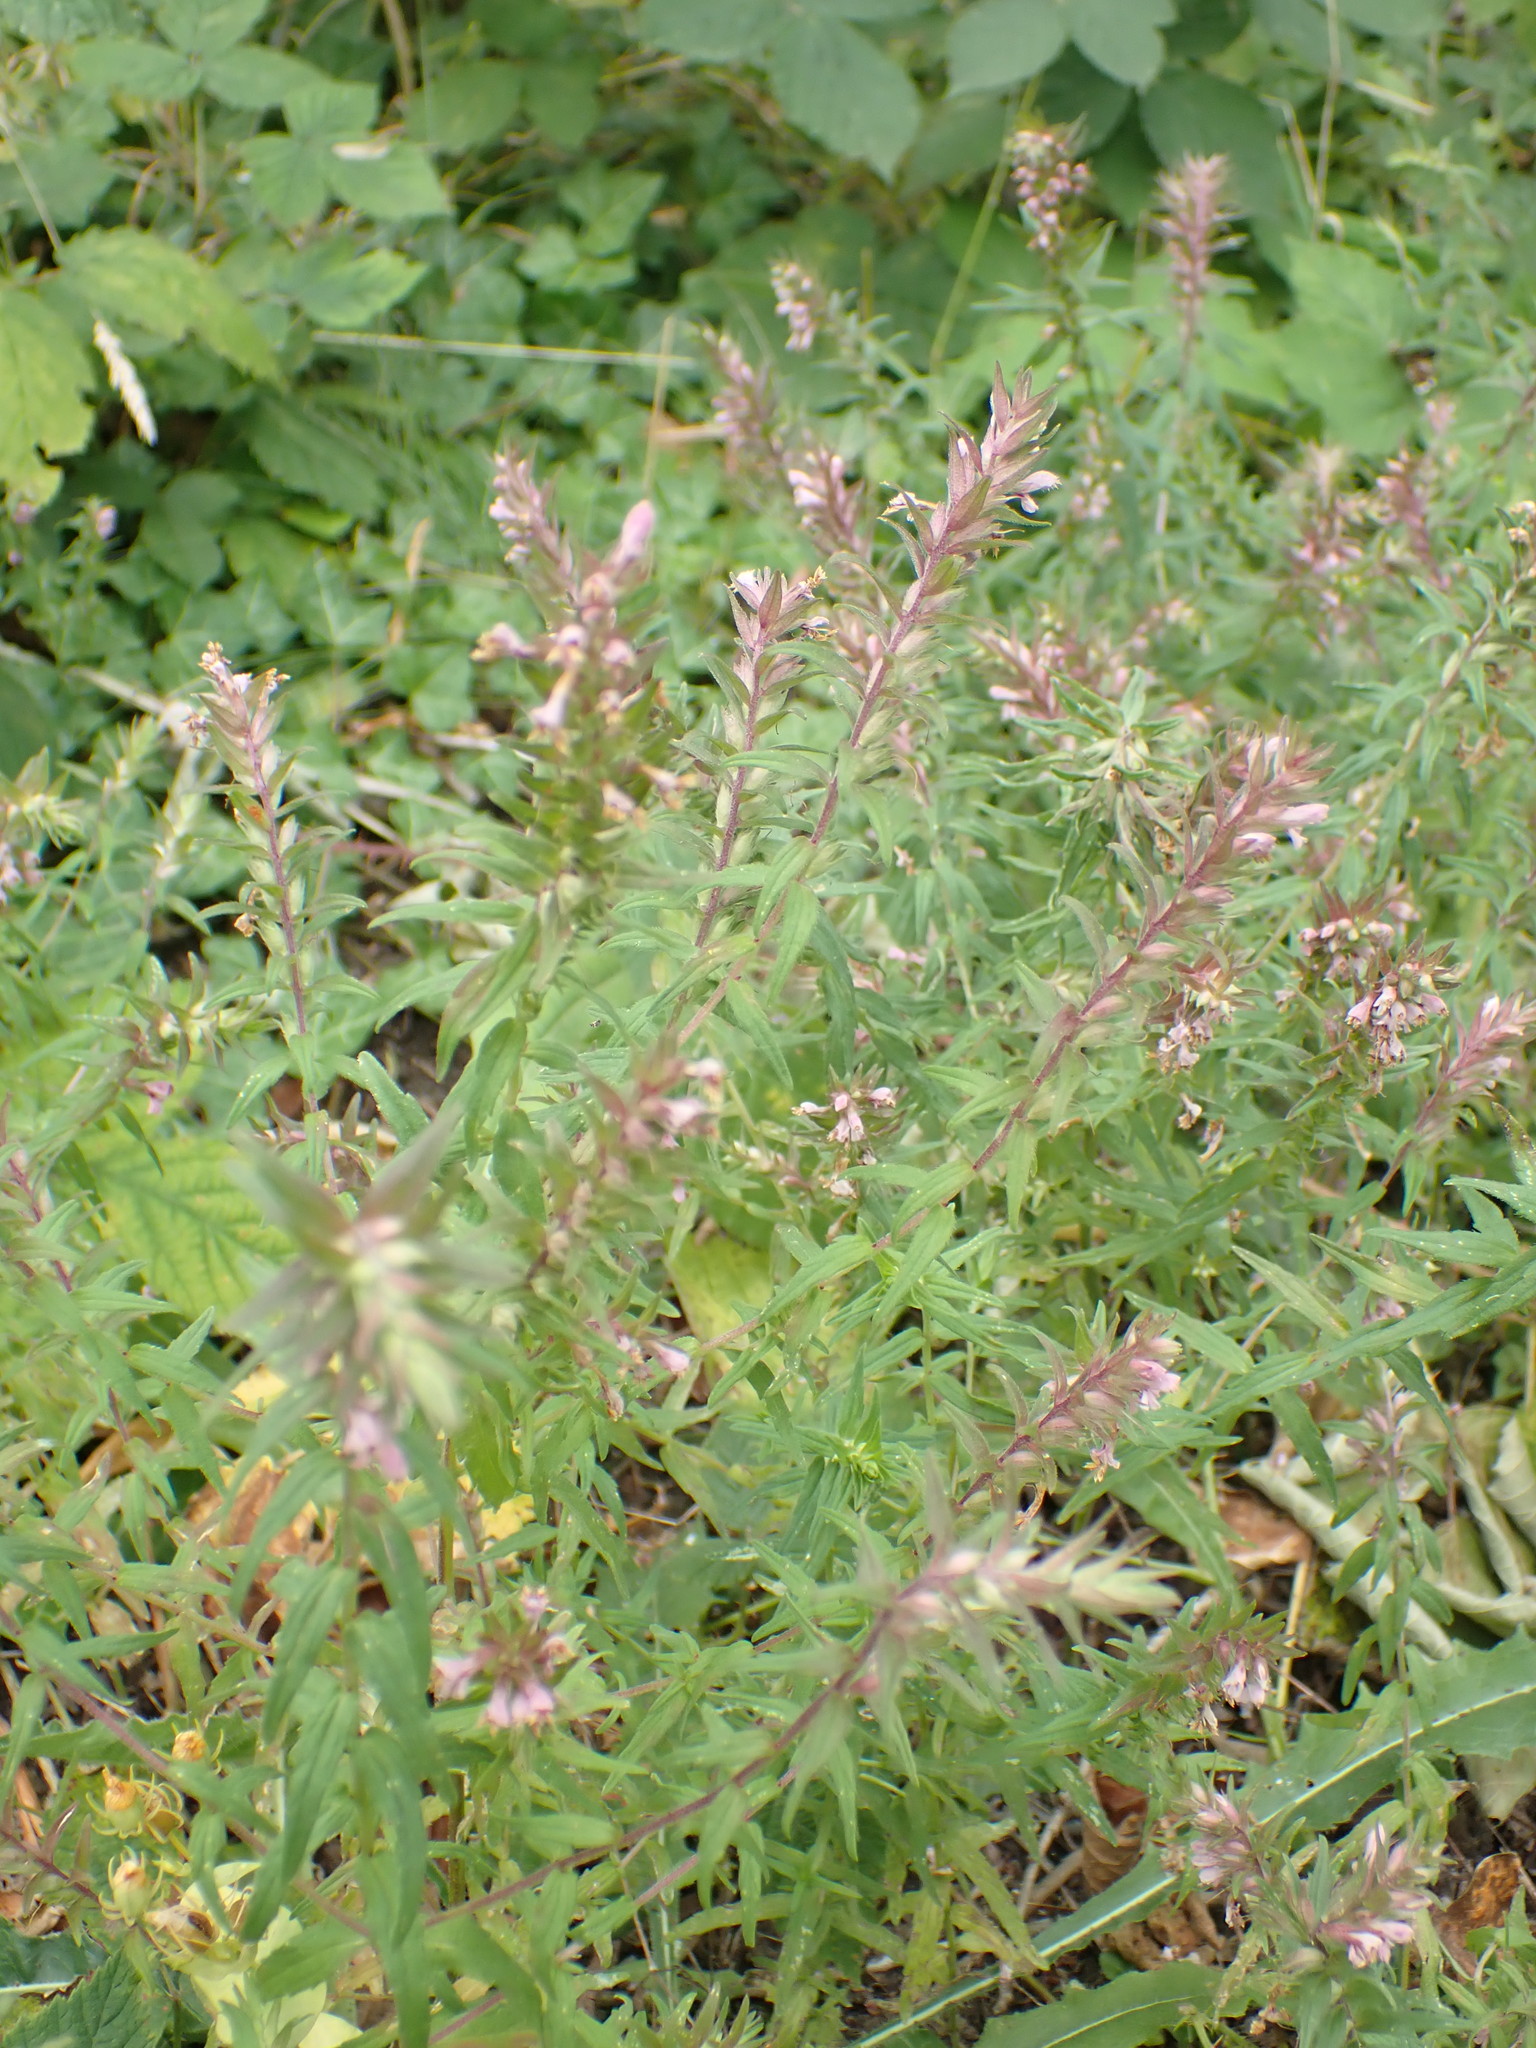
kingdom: Plantae
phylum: Tracheophyta
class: Magnoliopsida
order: Lamiales
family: Orobanchaceae
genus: Odontites
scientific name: Odontites vulgaris
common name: Broomrape
